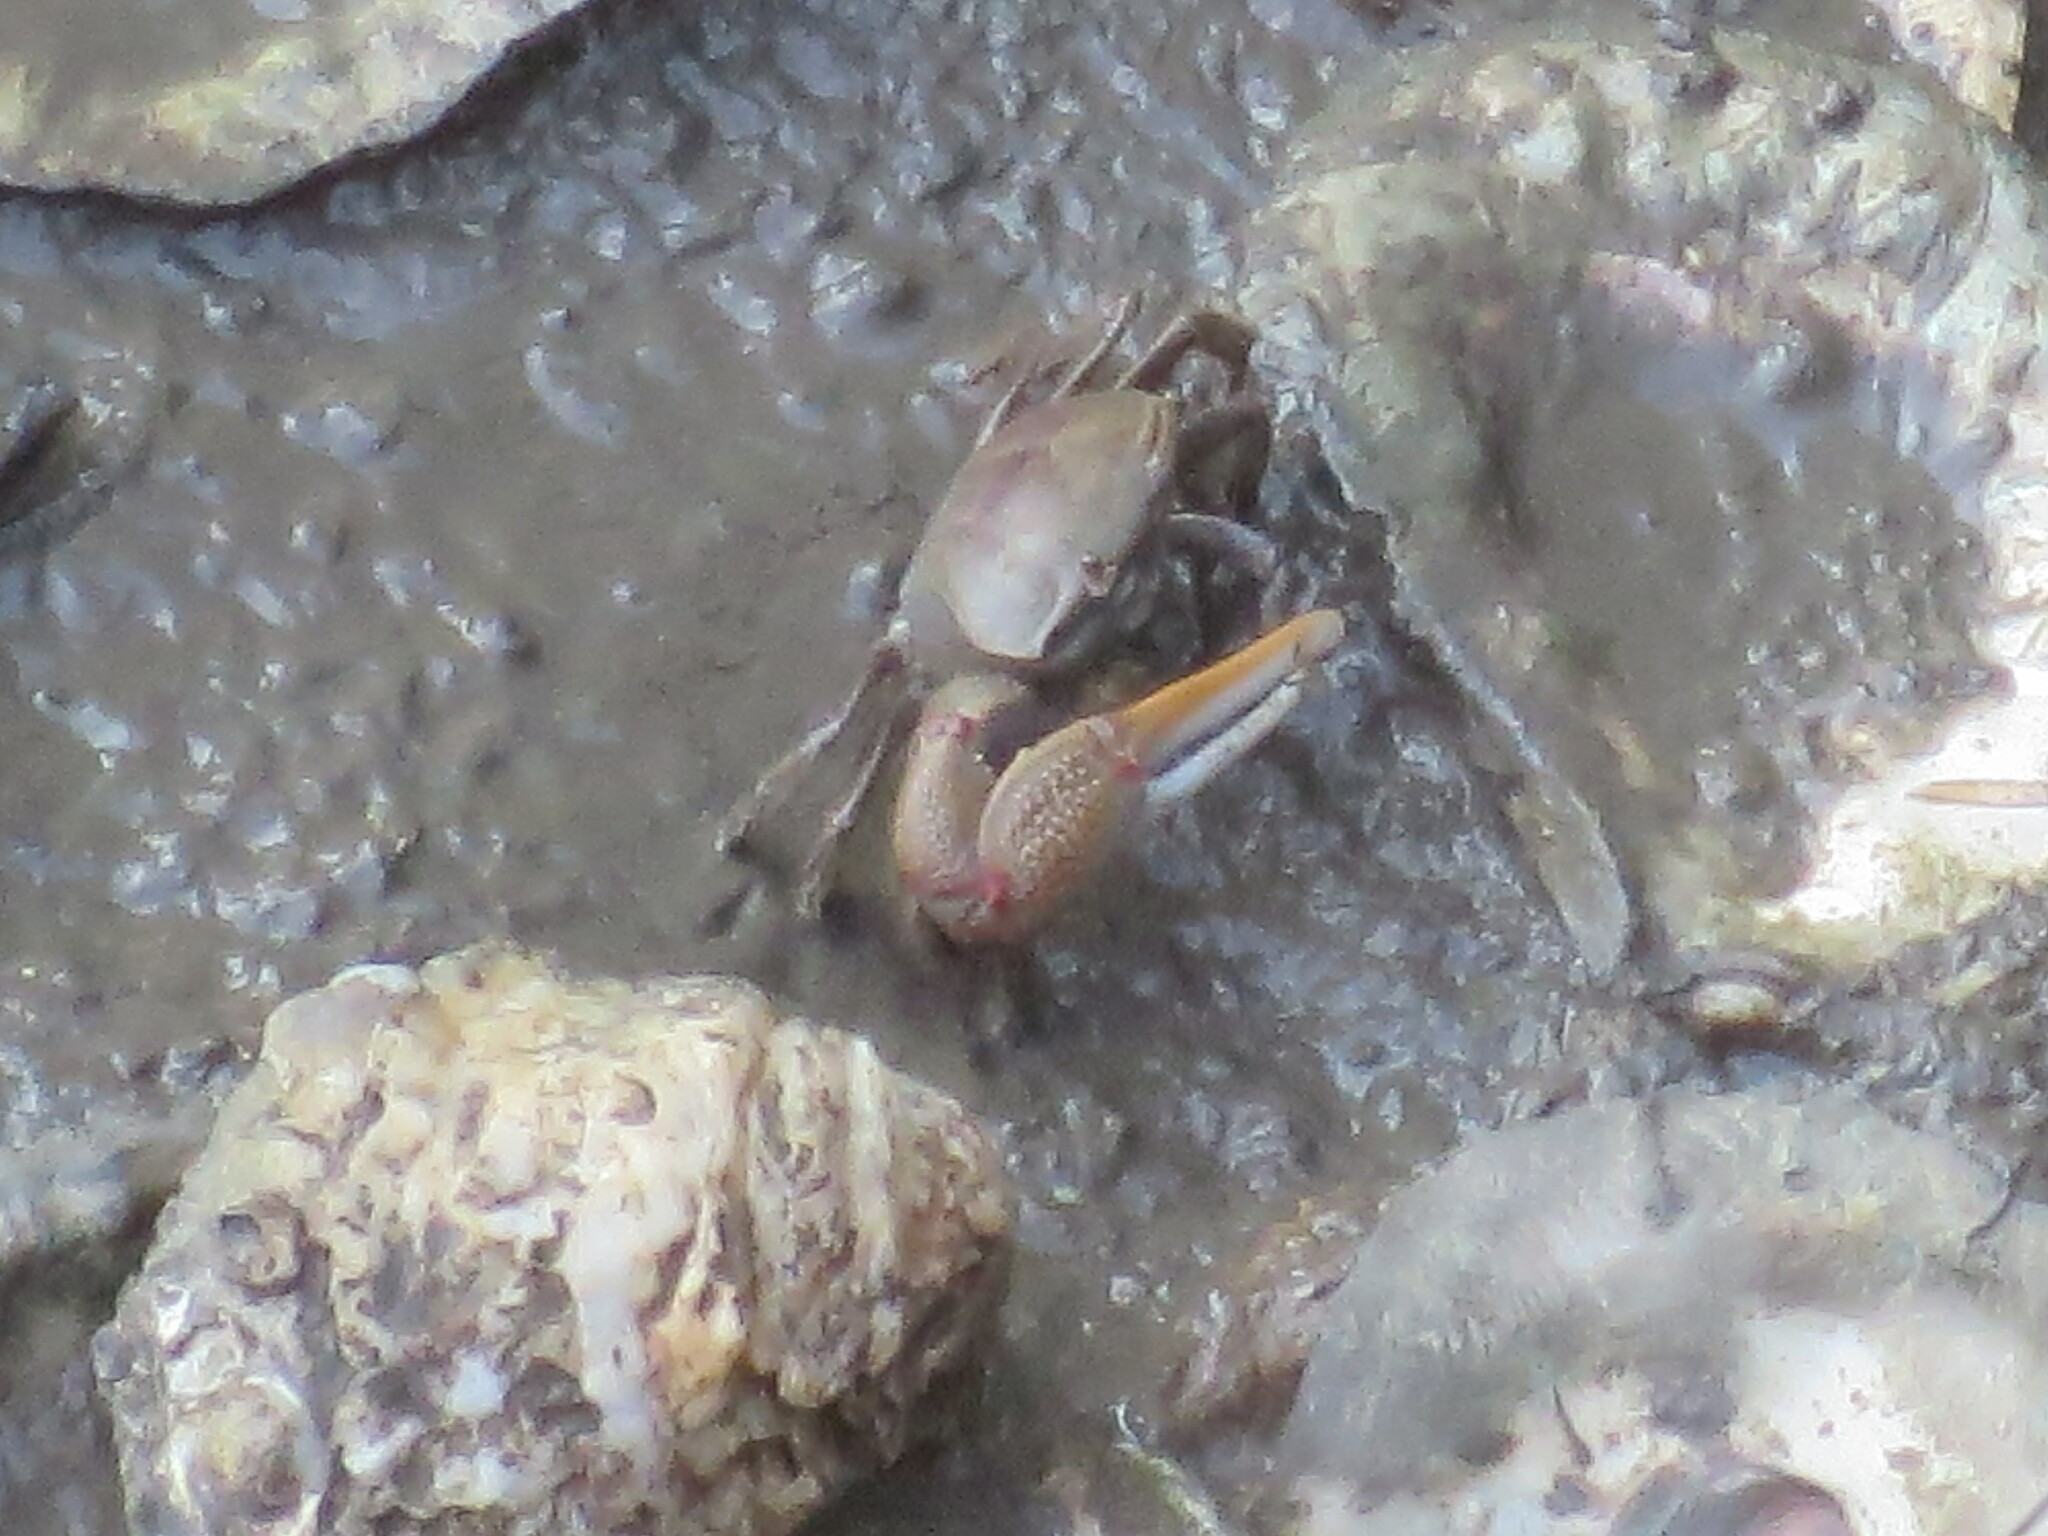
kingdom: Animalia
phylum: Arthropoda
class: Malacostraca
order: Decapoda
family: Ocypodidae
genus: Minuca
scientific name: Minuca minax
